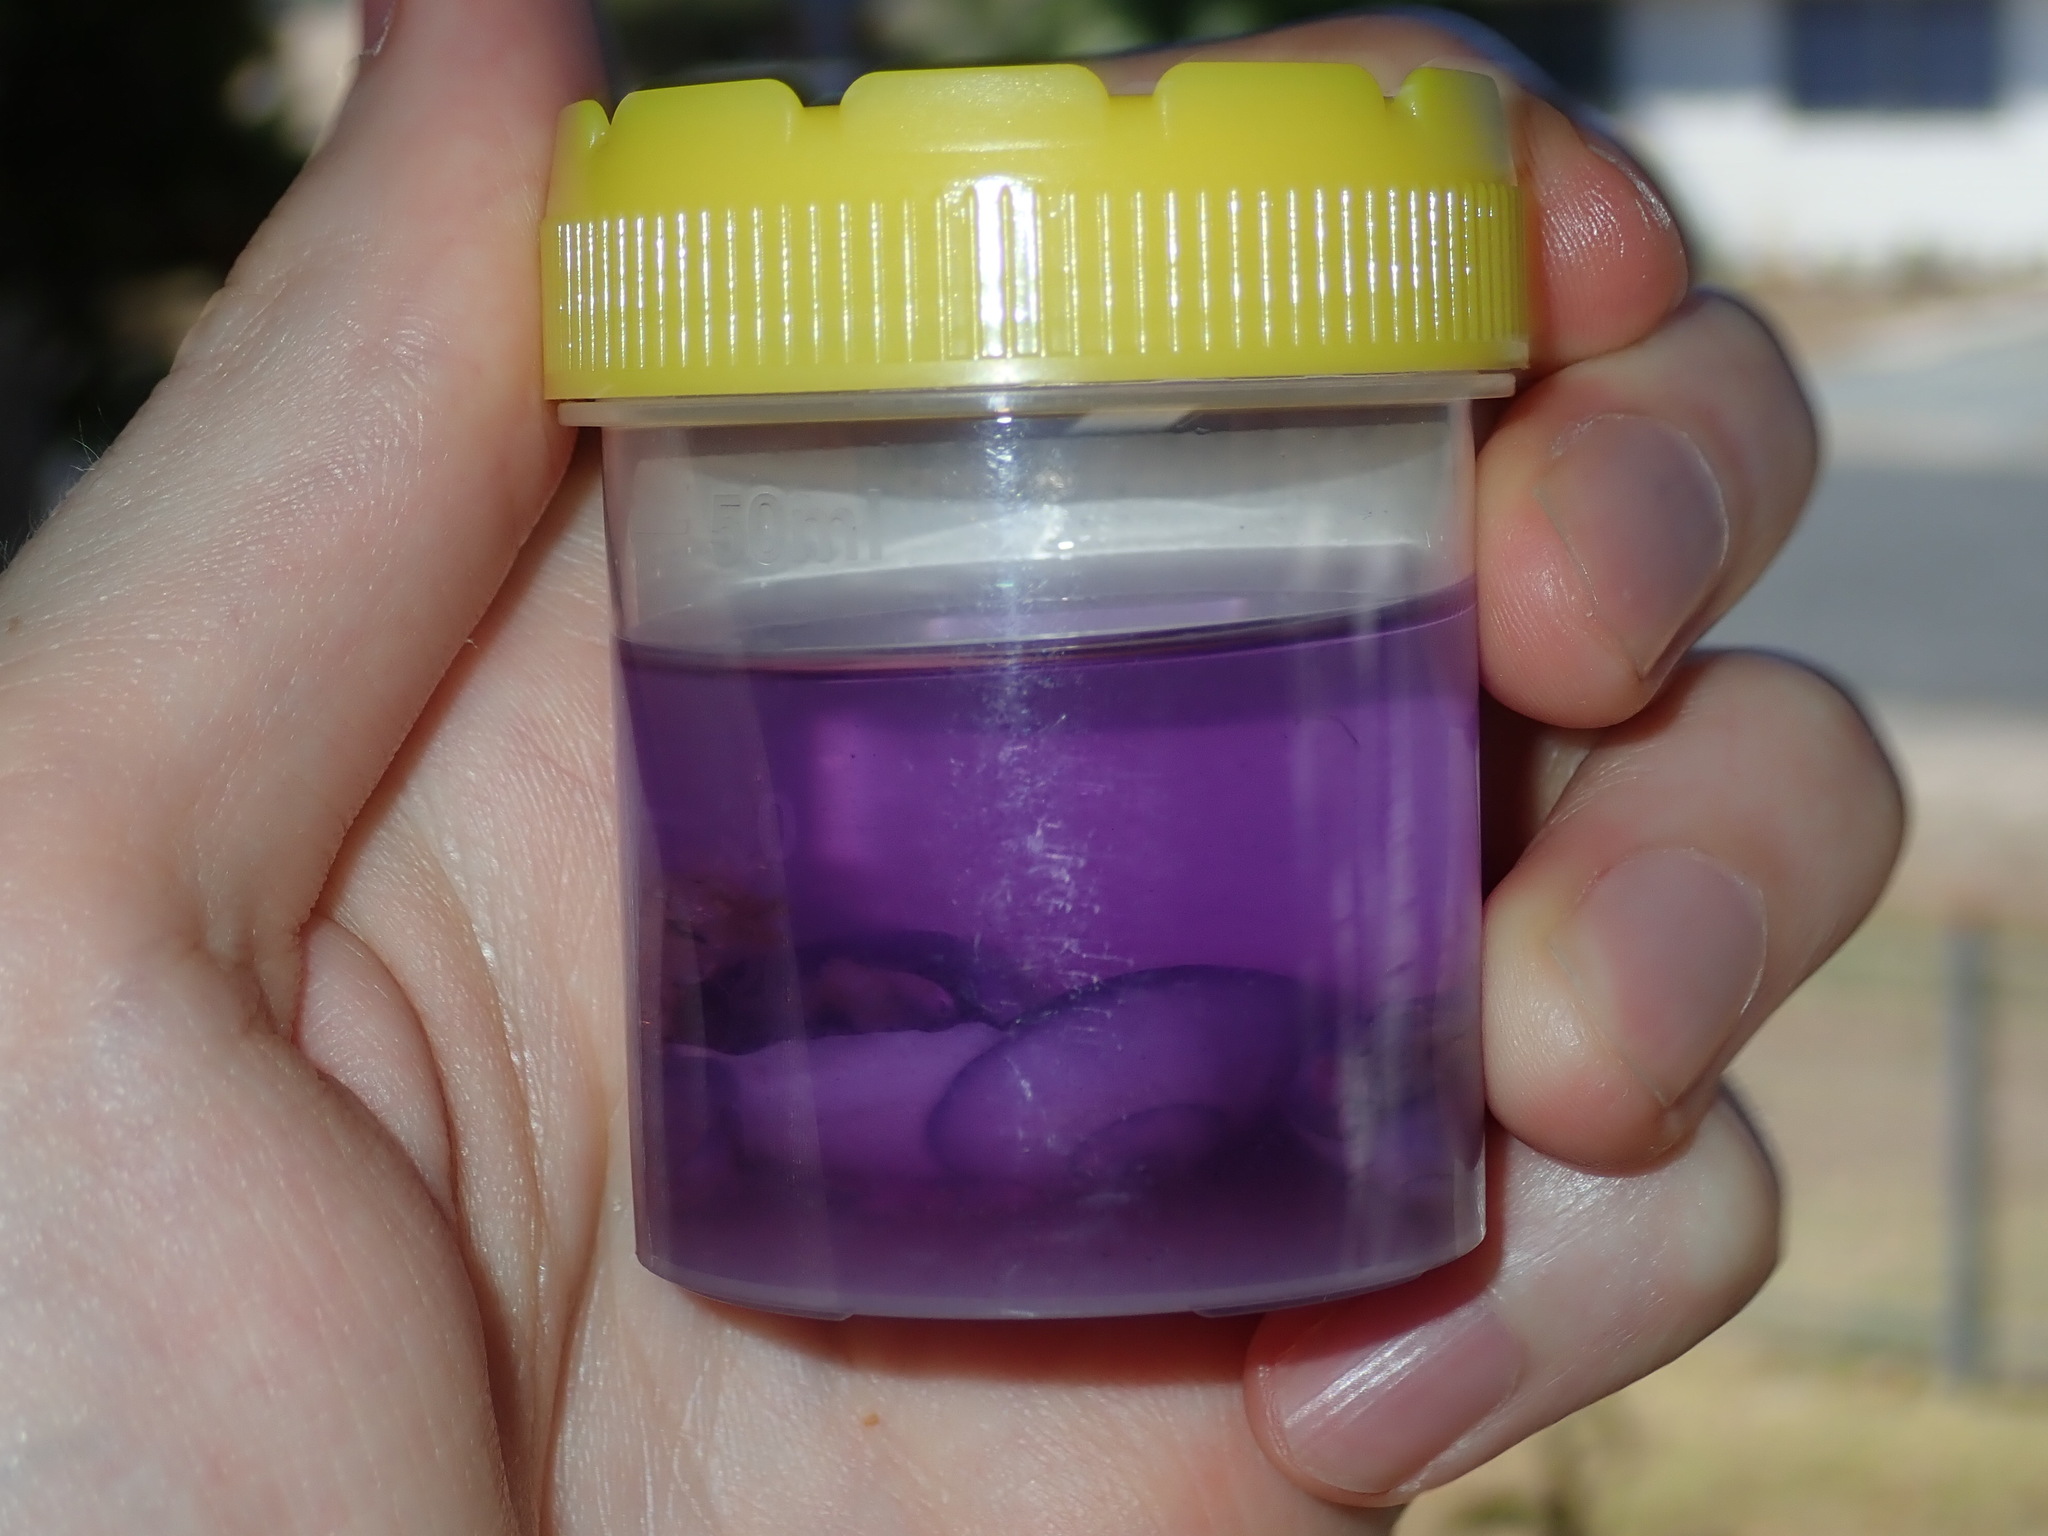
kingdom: Animalia
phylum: Mollusca
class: Gastropoda
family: Epitoniidae
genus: Janthina
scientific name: Janthina janthina
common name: Common janthina
